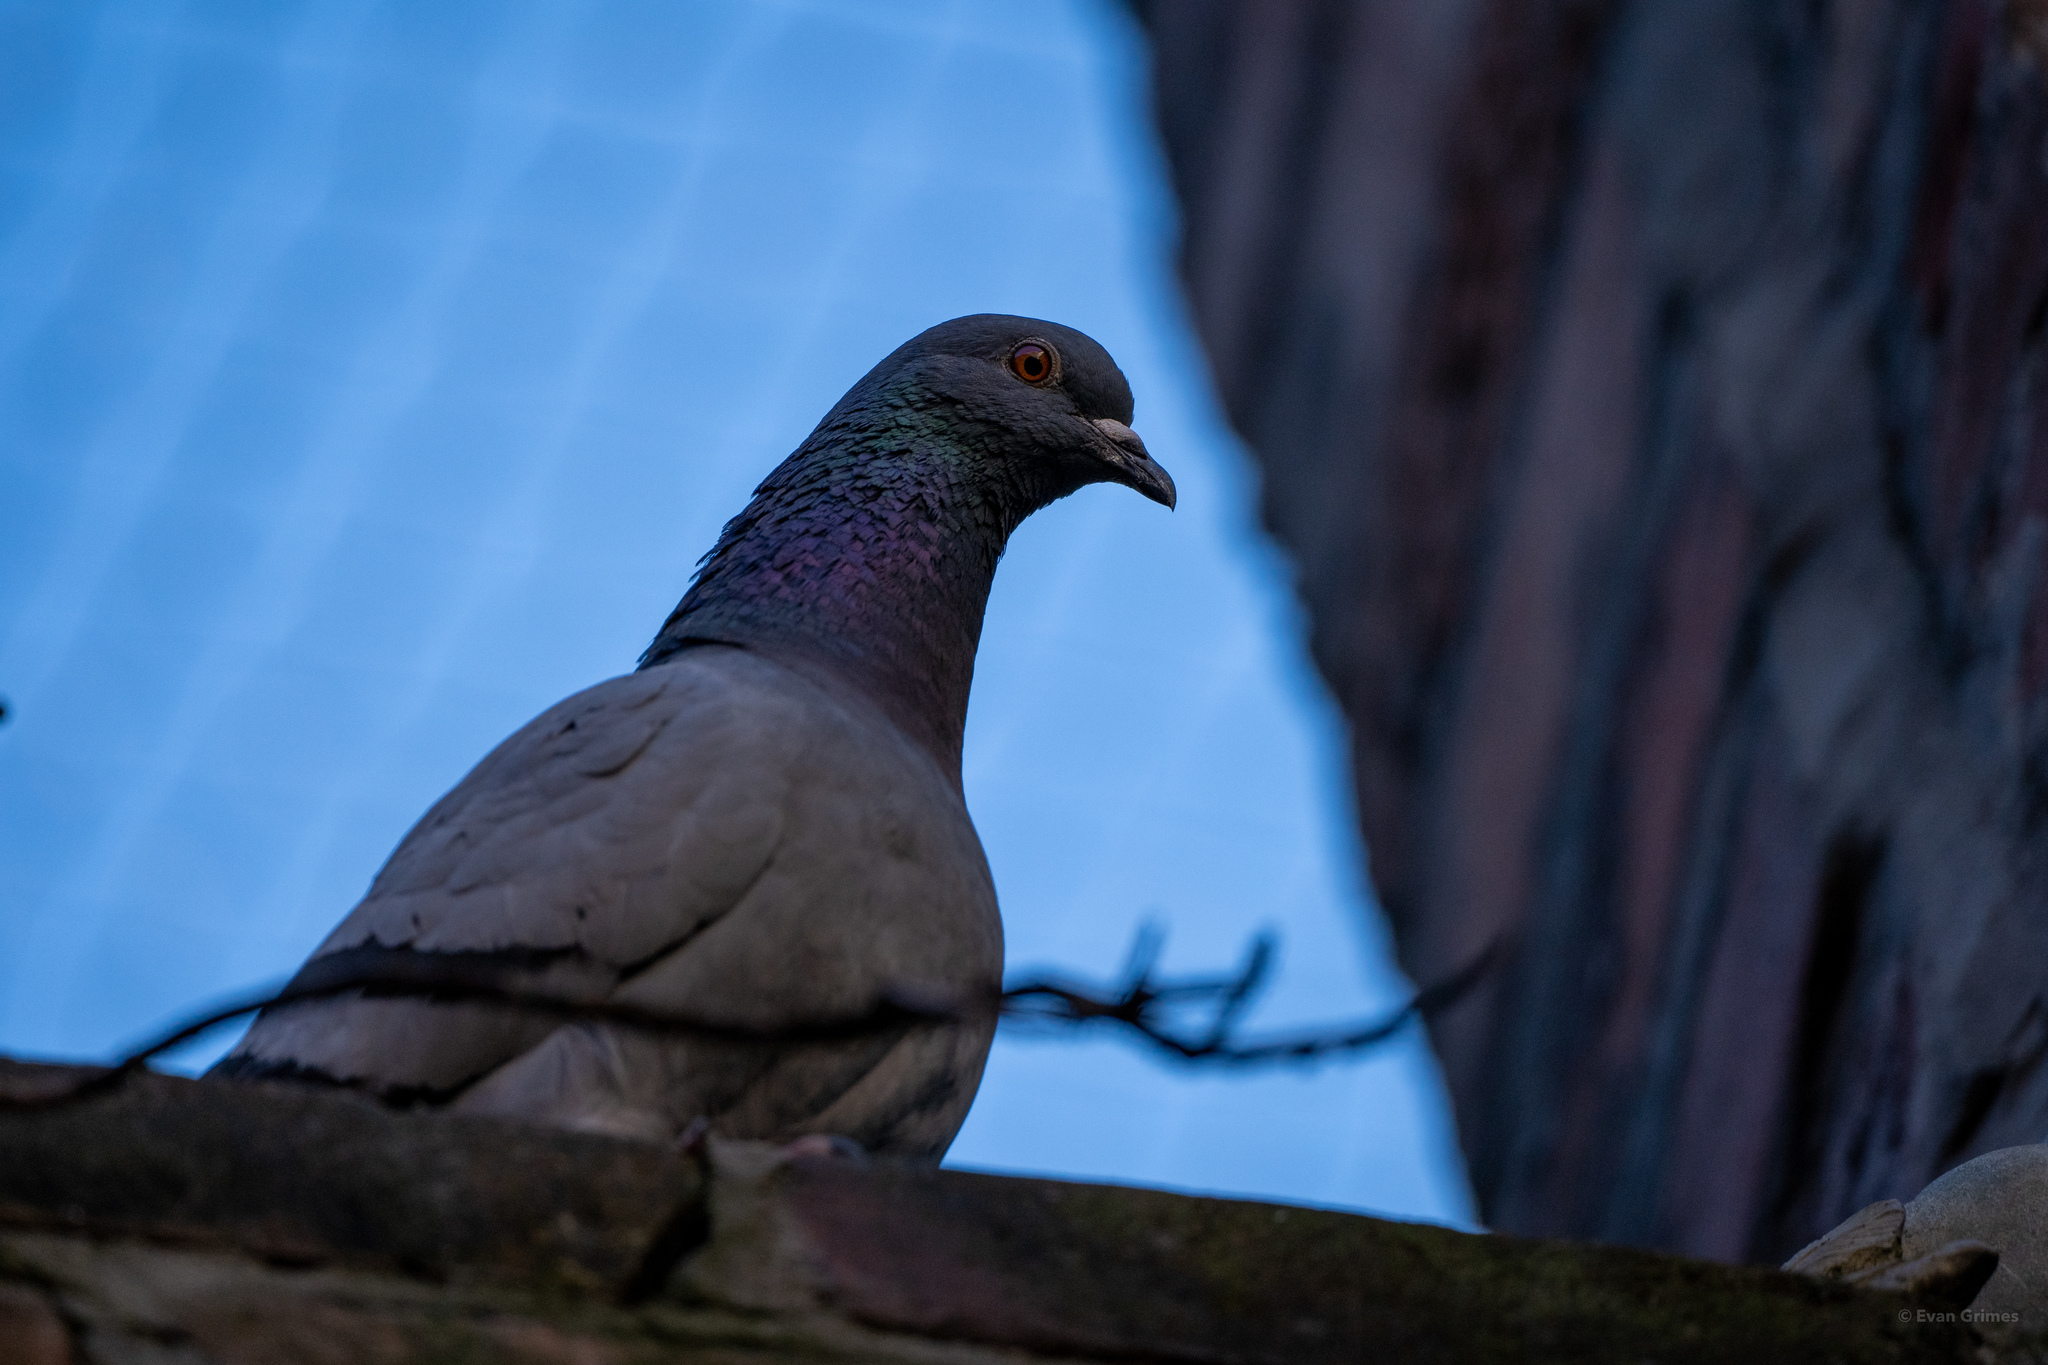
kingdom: Animalia
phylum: Chordata
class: Aves
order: Columbiformes
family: Columbidae
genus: Columba
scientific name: Columba livia
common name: Rock pigeon
